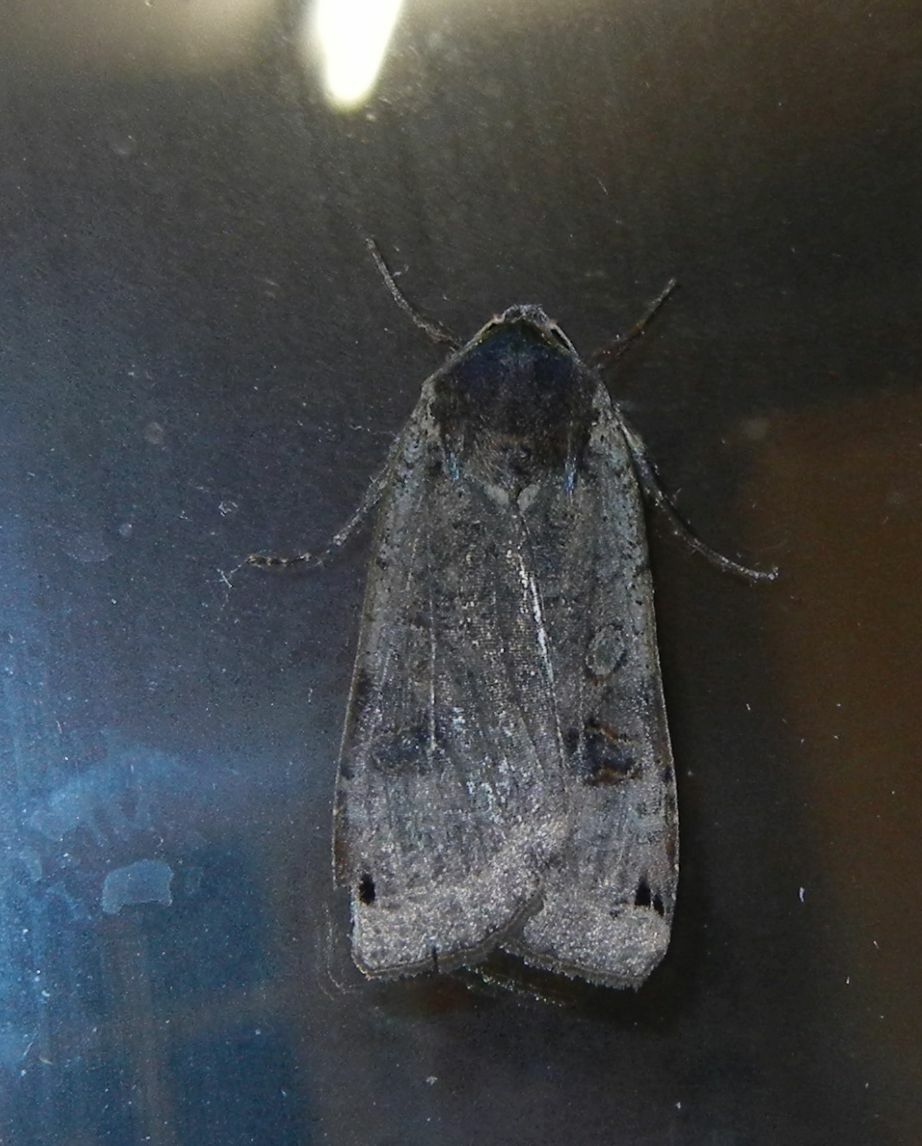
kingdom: Animalia
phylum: Arthropoda
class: Insecta
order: Lepidoptera
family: Noctuidae
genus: Noctua
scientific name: Noctua pronuba
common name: Large yellow underwing
